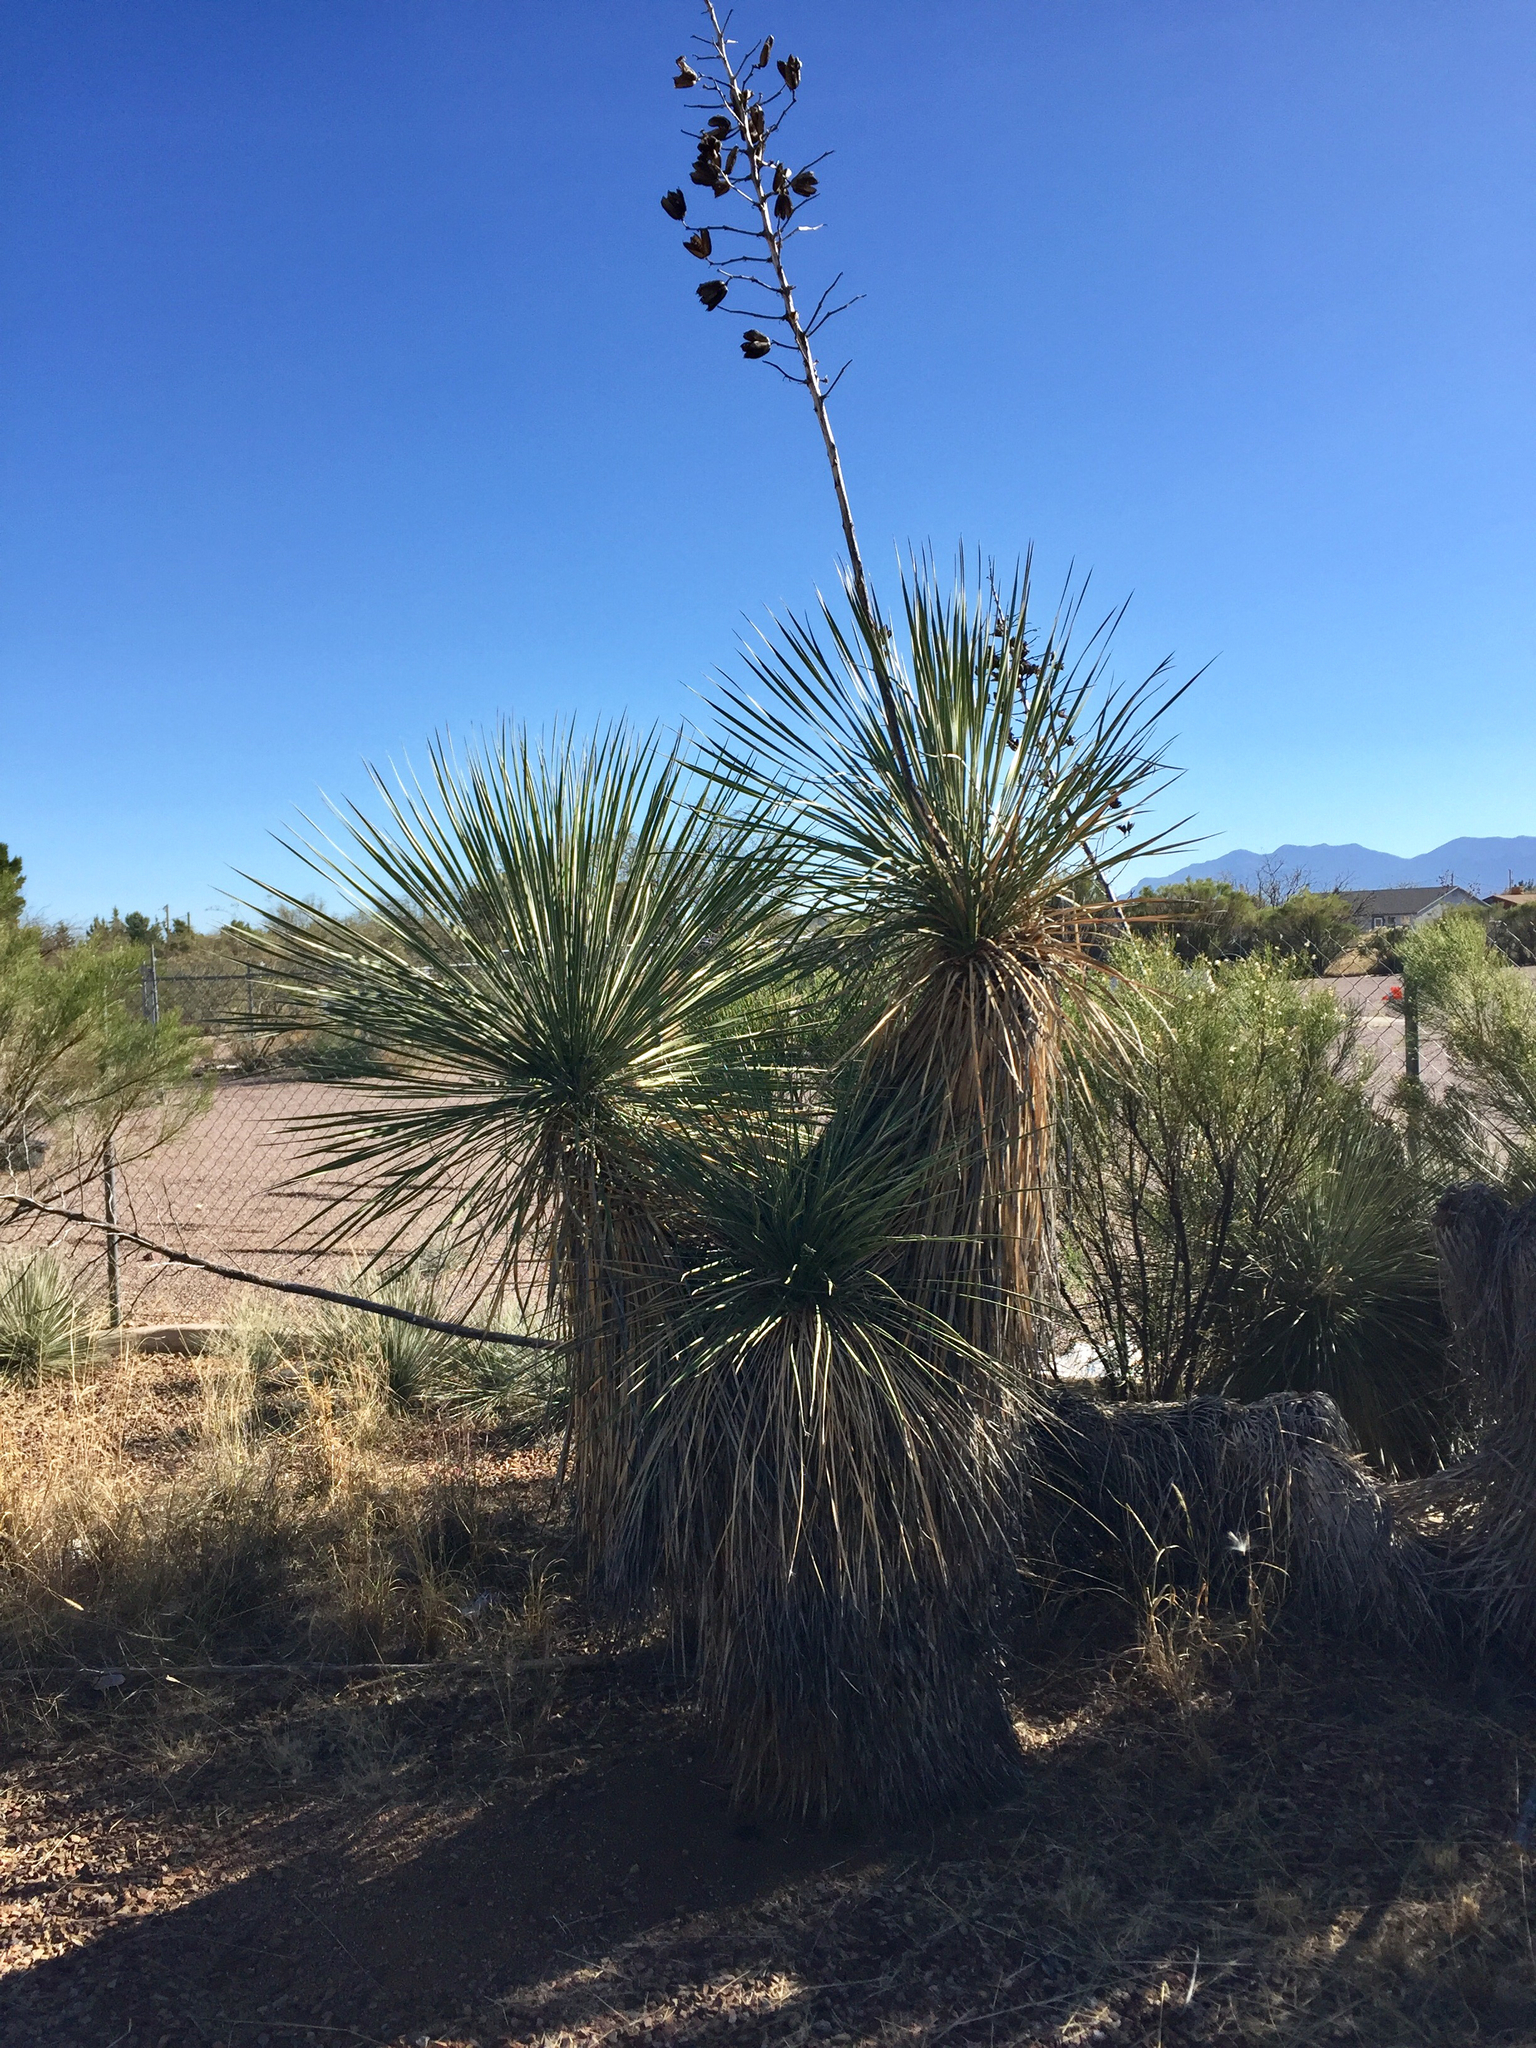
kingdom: Plantae
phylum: Tracheophyta
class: Liliopsida
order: Asparagales
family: Asparagaceae
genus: Yucca
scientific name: Yucca elata
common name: Palmella
